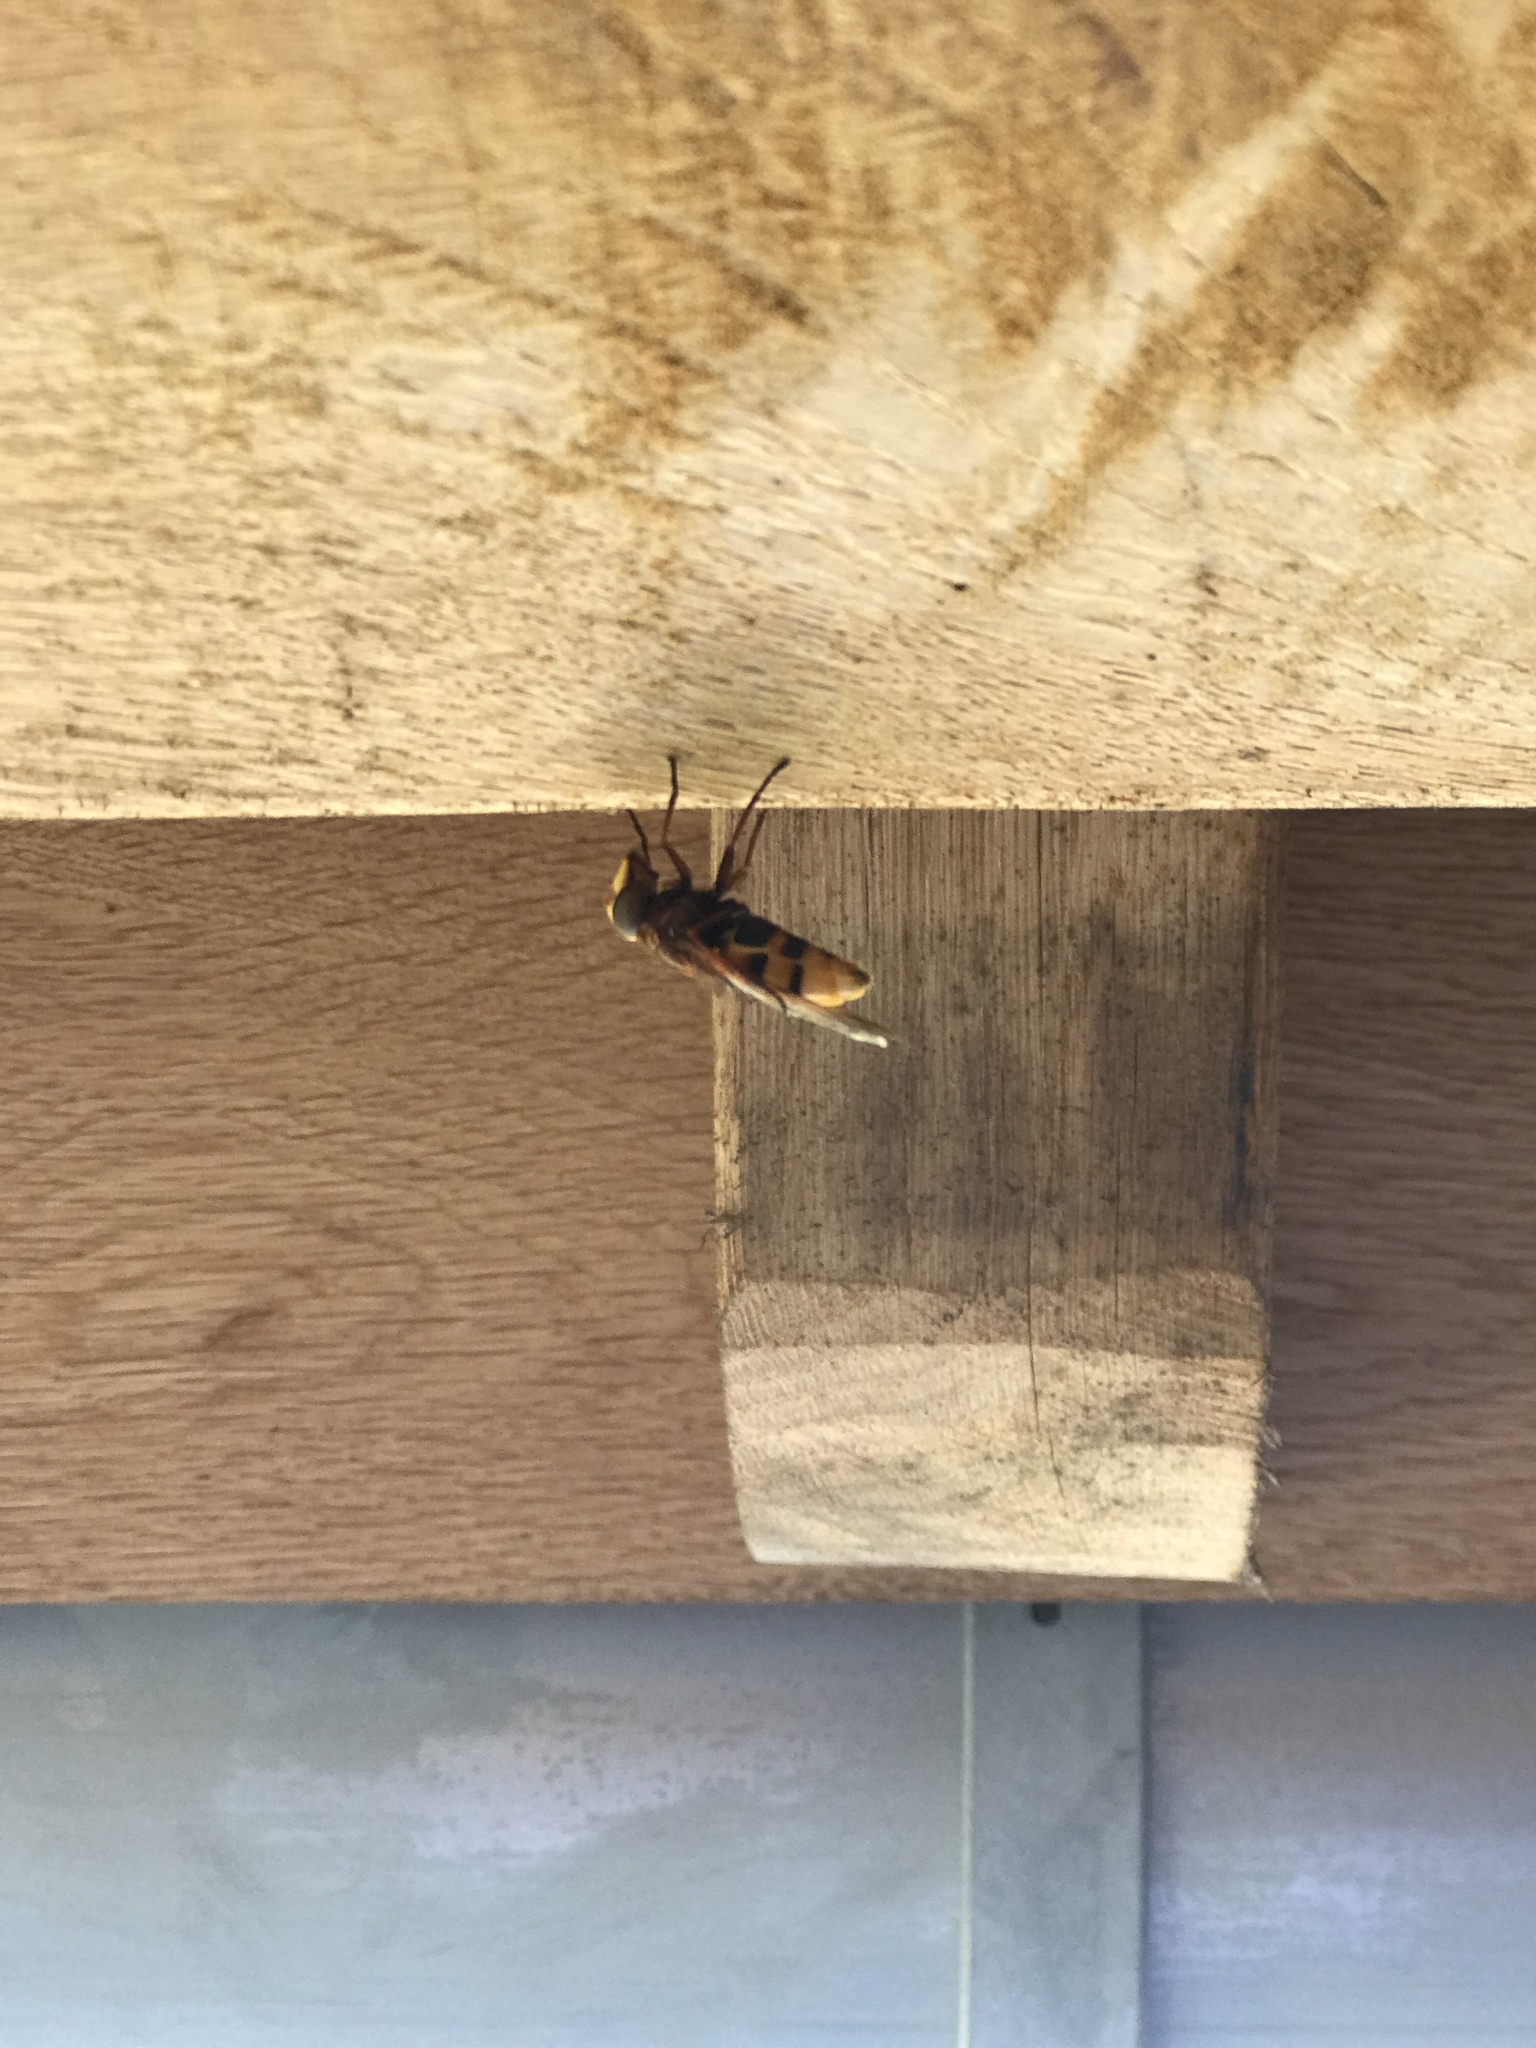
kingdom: Animalia
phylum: Arthropoda
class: Insecta
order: Diptera
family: Syrphidae
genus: Volucella
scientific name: Volucella zonaria
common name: Hornet hoverfly
